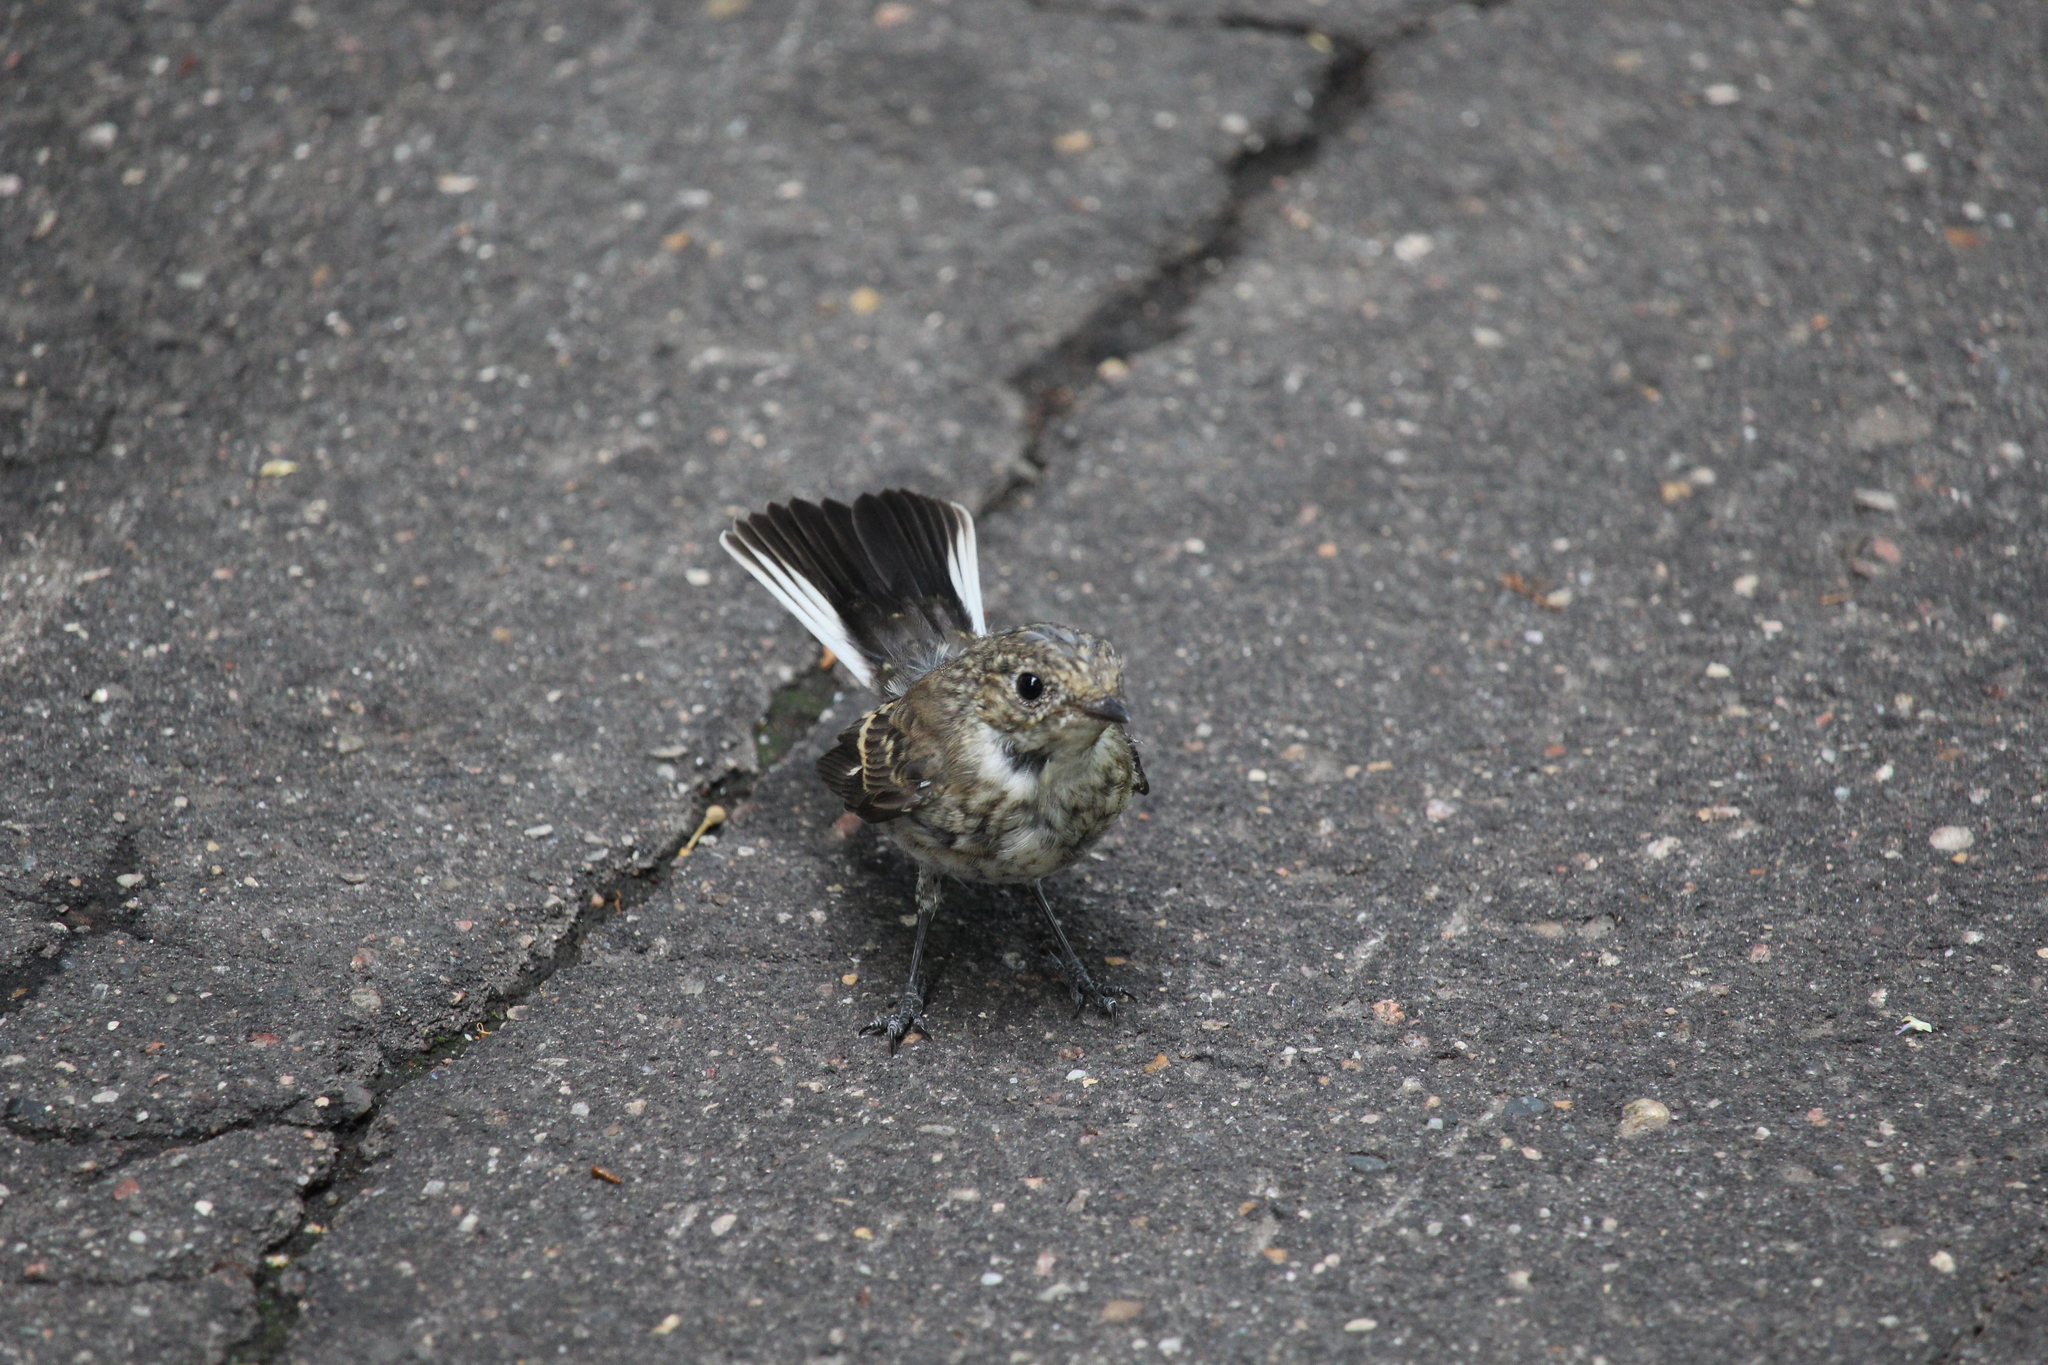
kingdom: Animalia
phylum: Chordata
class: Aves
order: Passeriformes
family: Muscicapidae
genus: Ficedula
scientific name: Ficedula hypoleuca
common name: European pied flycatcher
